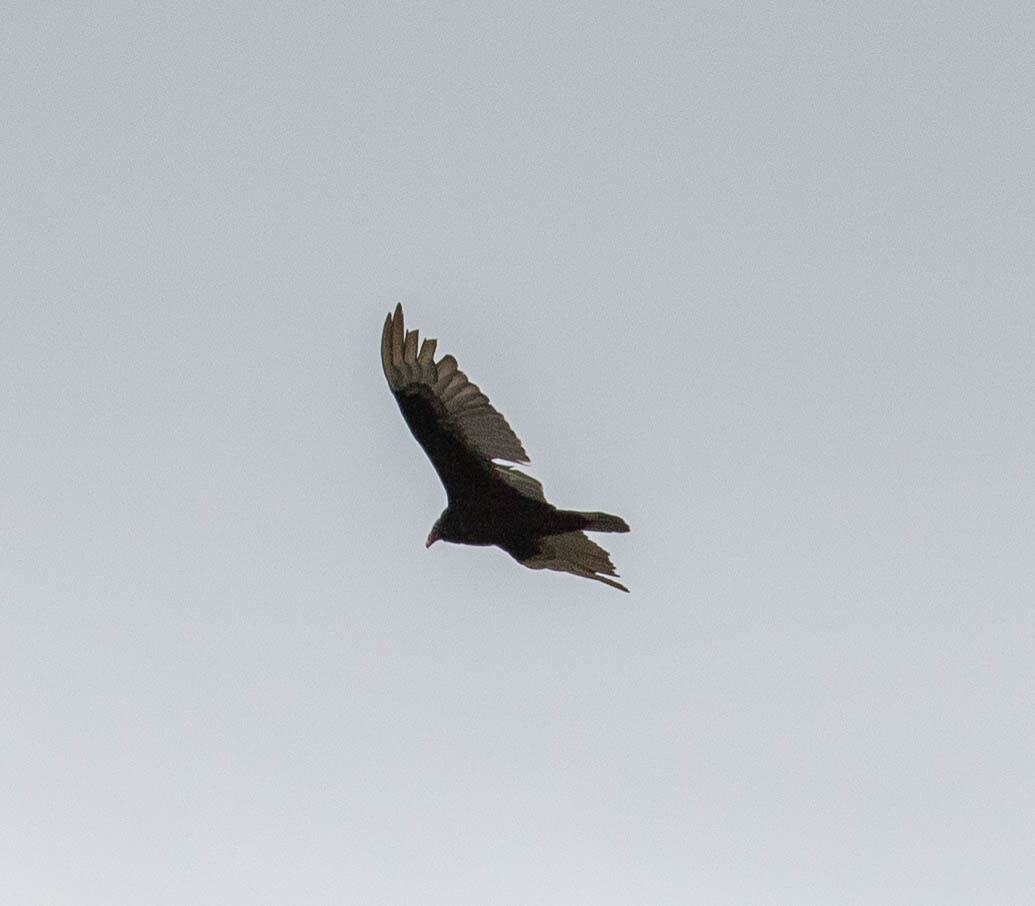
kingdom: Animalia
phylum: Chordata
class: Aves
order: Accipitriformes
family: Cathartidae
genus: Cathartes
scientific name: Cathartes aura
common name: Turkey vulture
